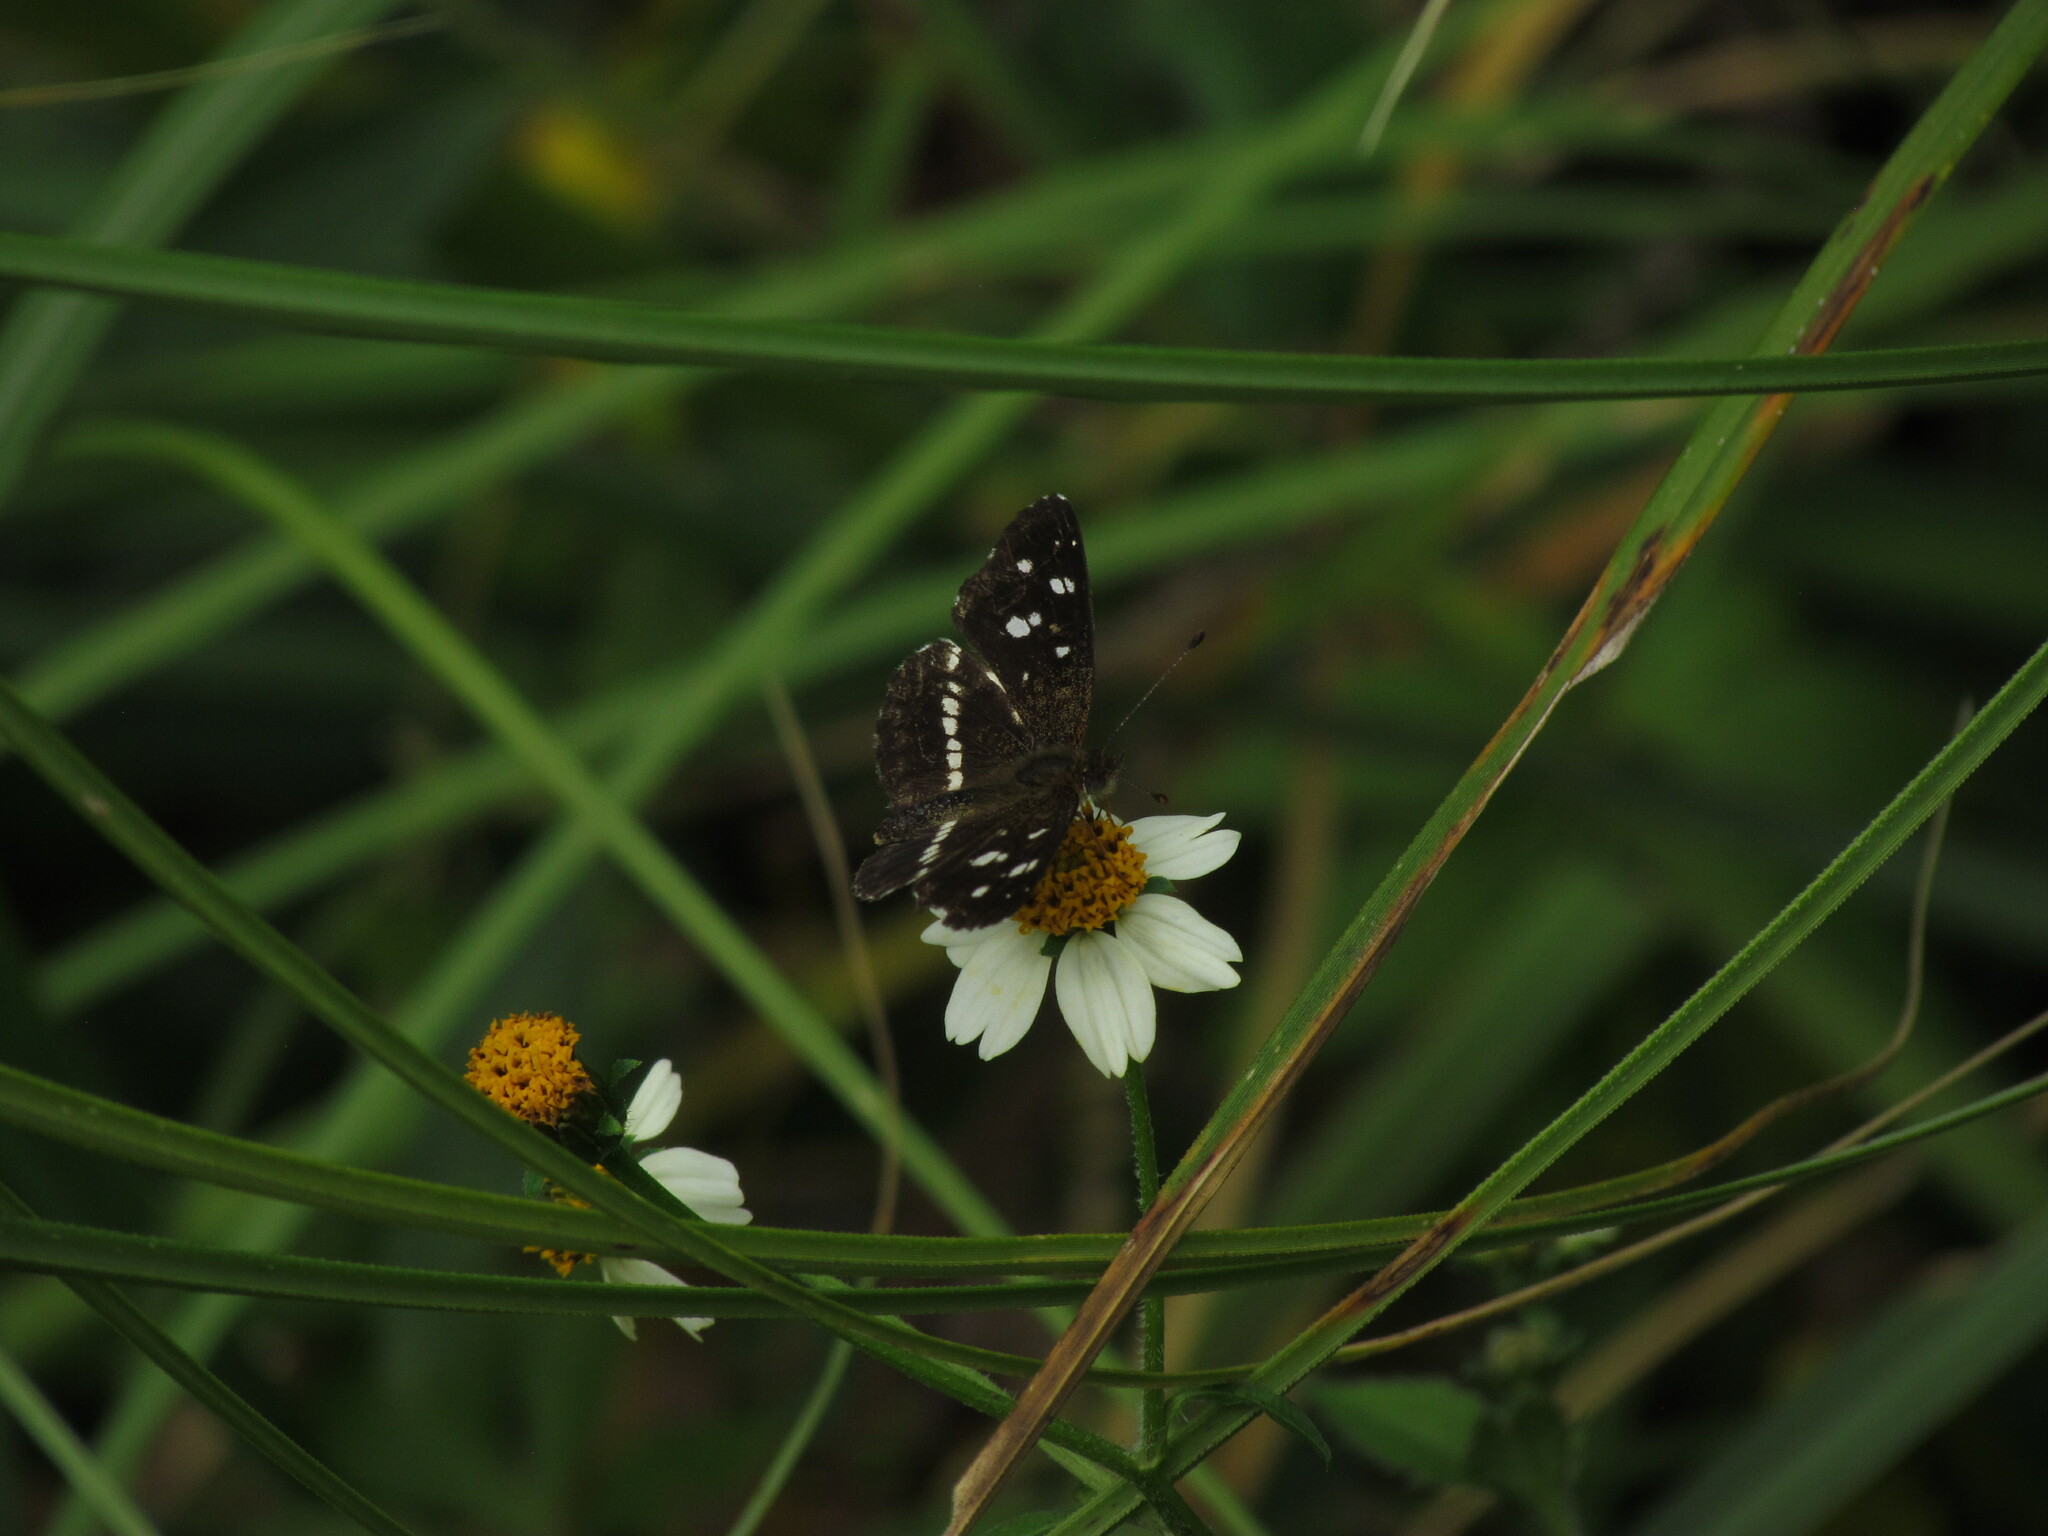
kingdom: Animalia
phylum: Arthropoda
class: Insecta
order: Lepidoptera
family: Nymphalidae
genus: Ortilia
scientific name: Ortilia ithra
